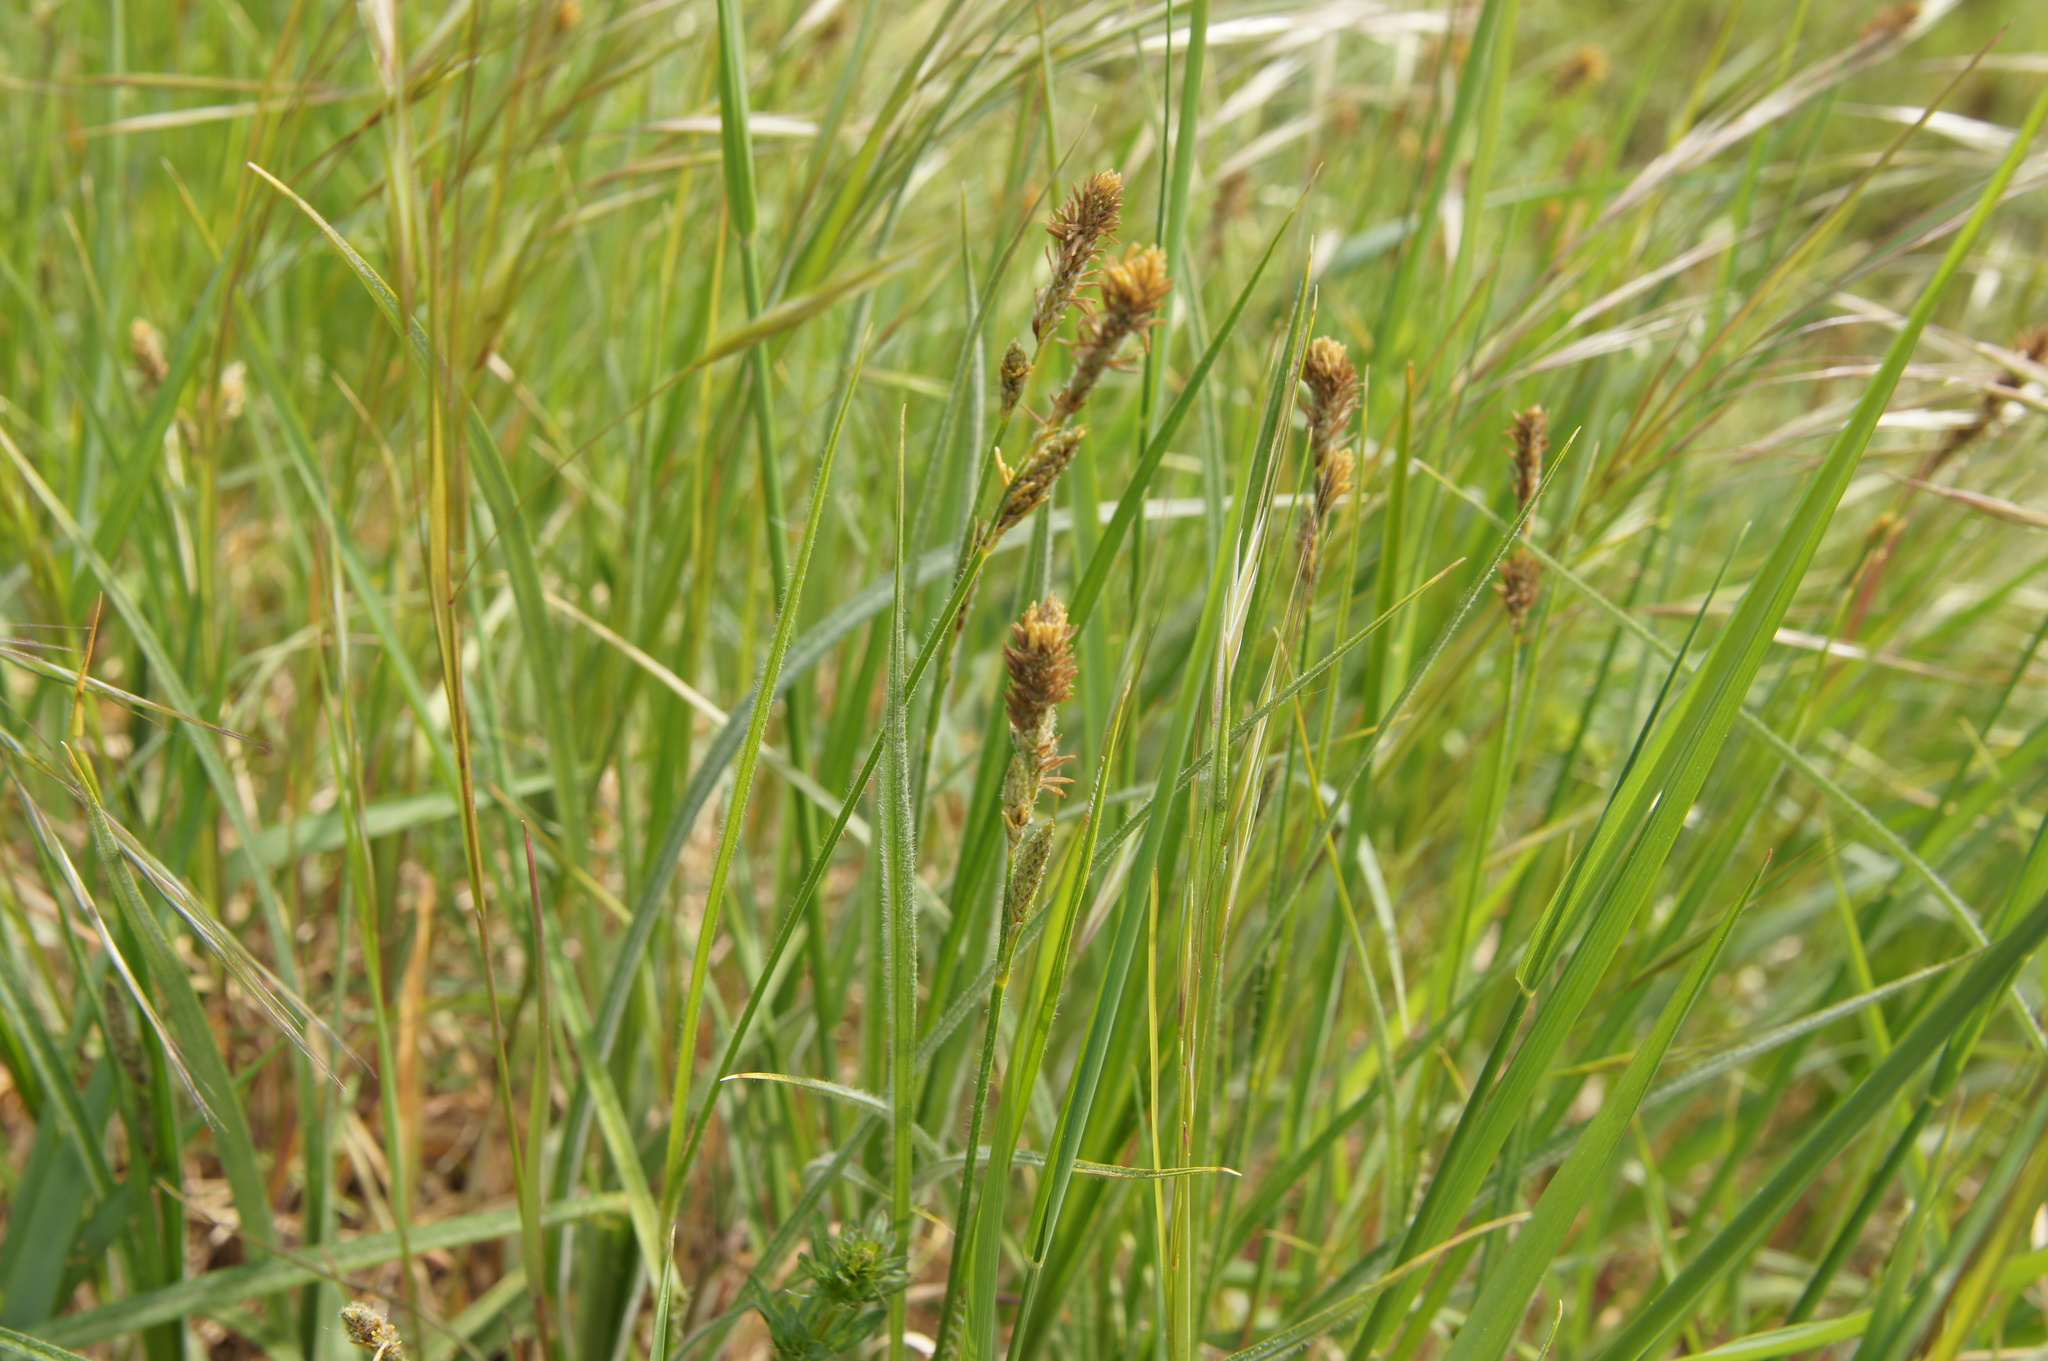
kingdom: Plantae
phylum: Tracheophyta
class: Liliopsida
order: Poales
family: Cyperaceae
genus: Carex
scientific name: Carex hirta
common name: Hairy sedge
